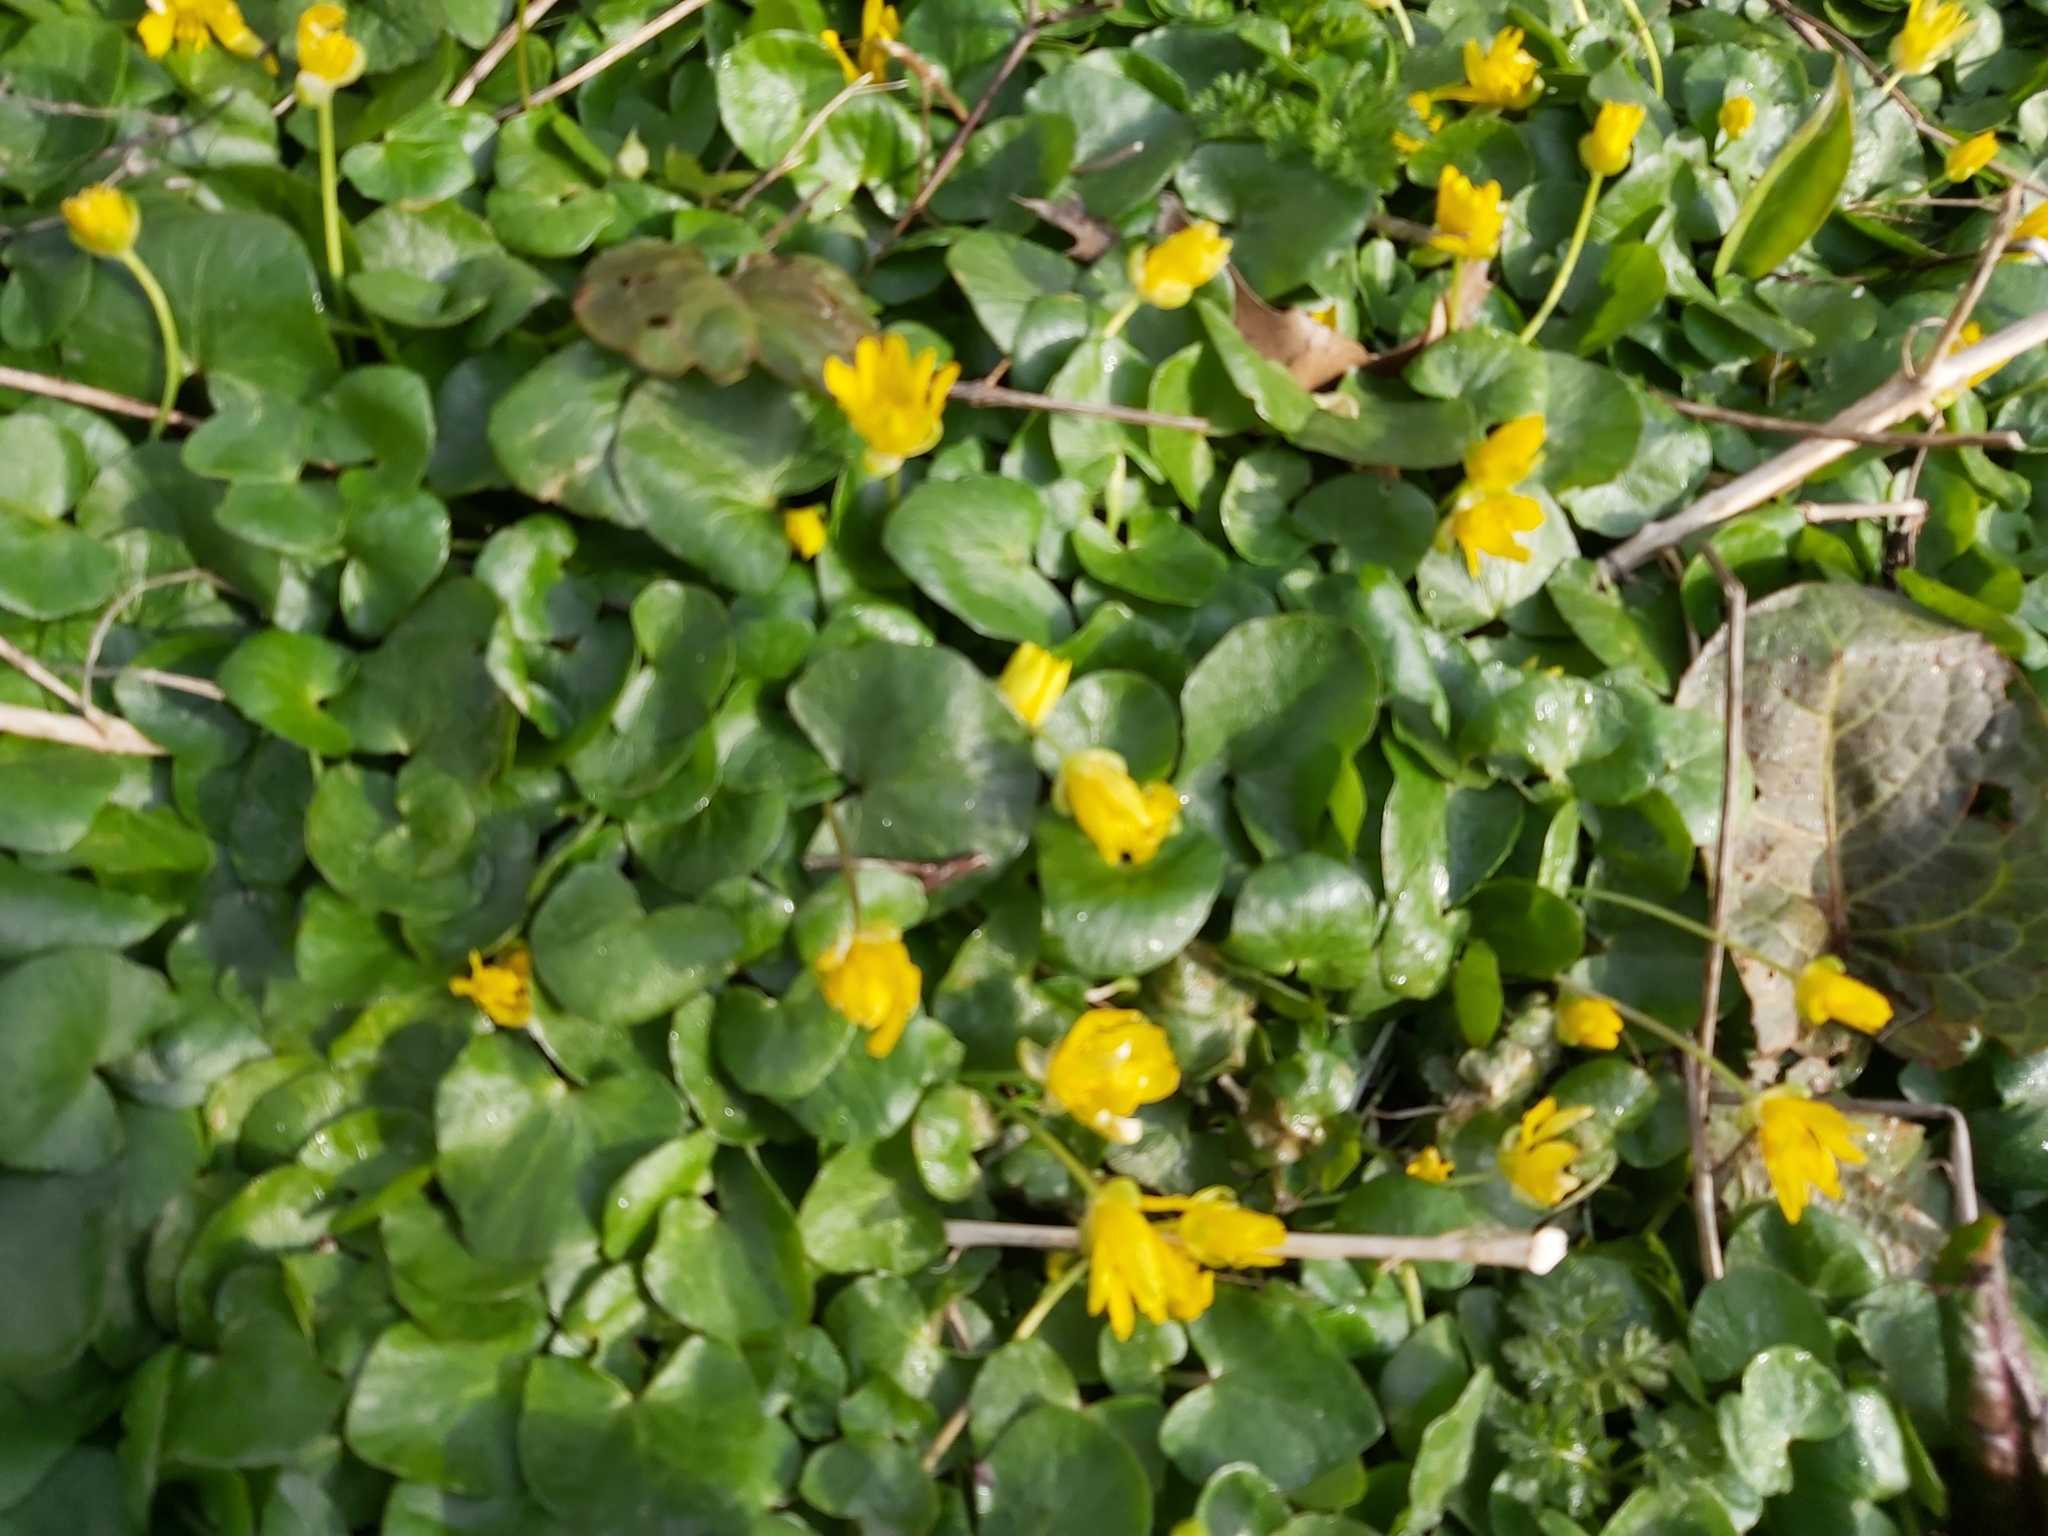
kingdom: Plantae
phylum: Tracheophyta
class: Magnoliopsida
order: Ranunculales
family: Ranunculaceae
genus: Ficaria
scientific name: Ficaria verna
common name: Lesser celandine
